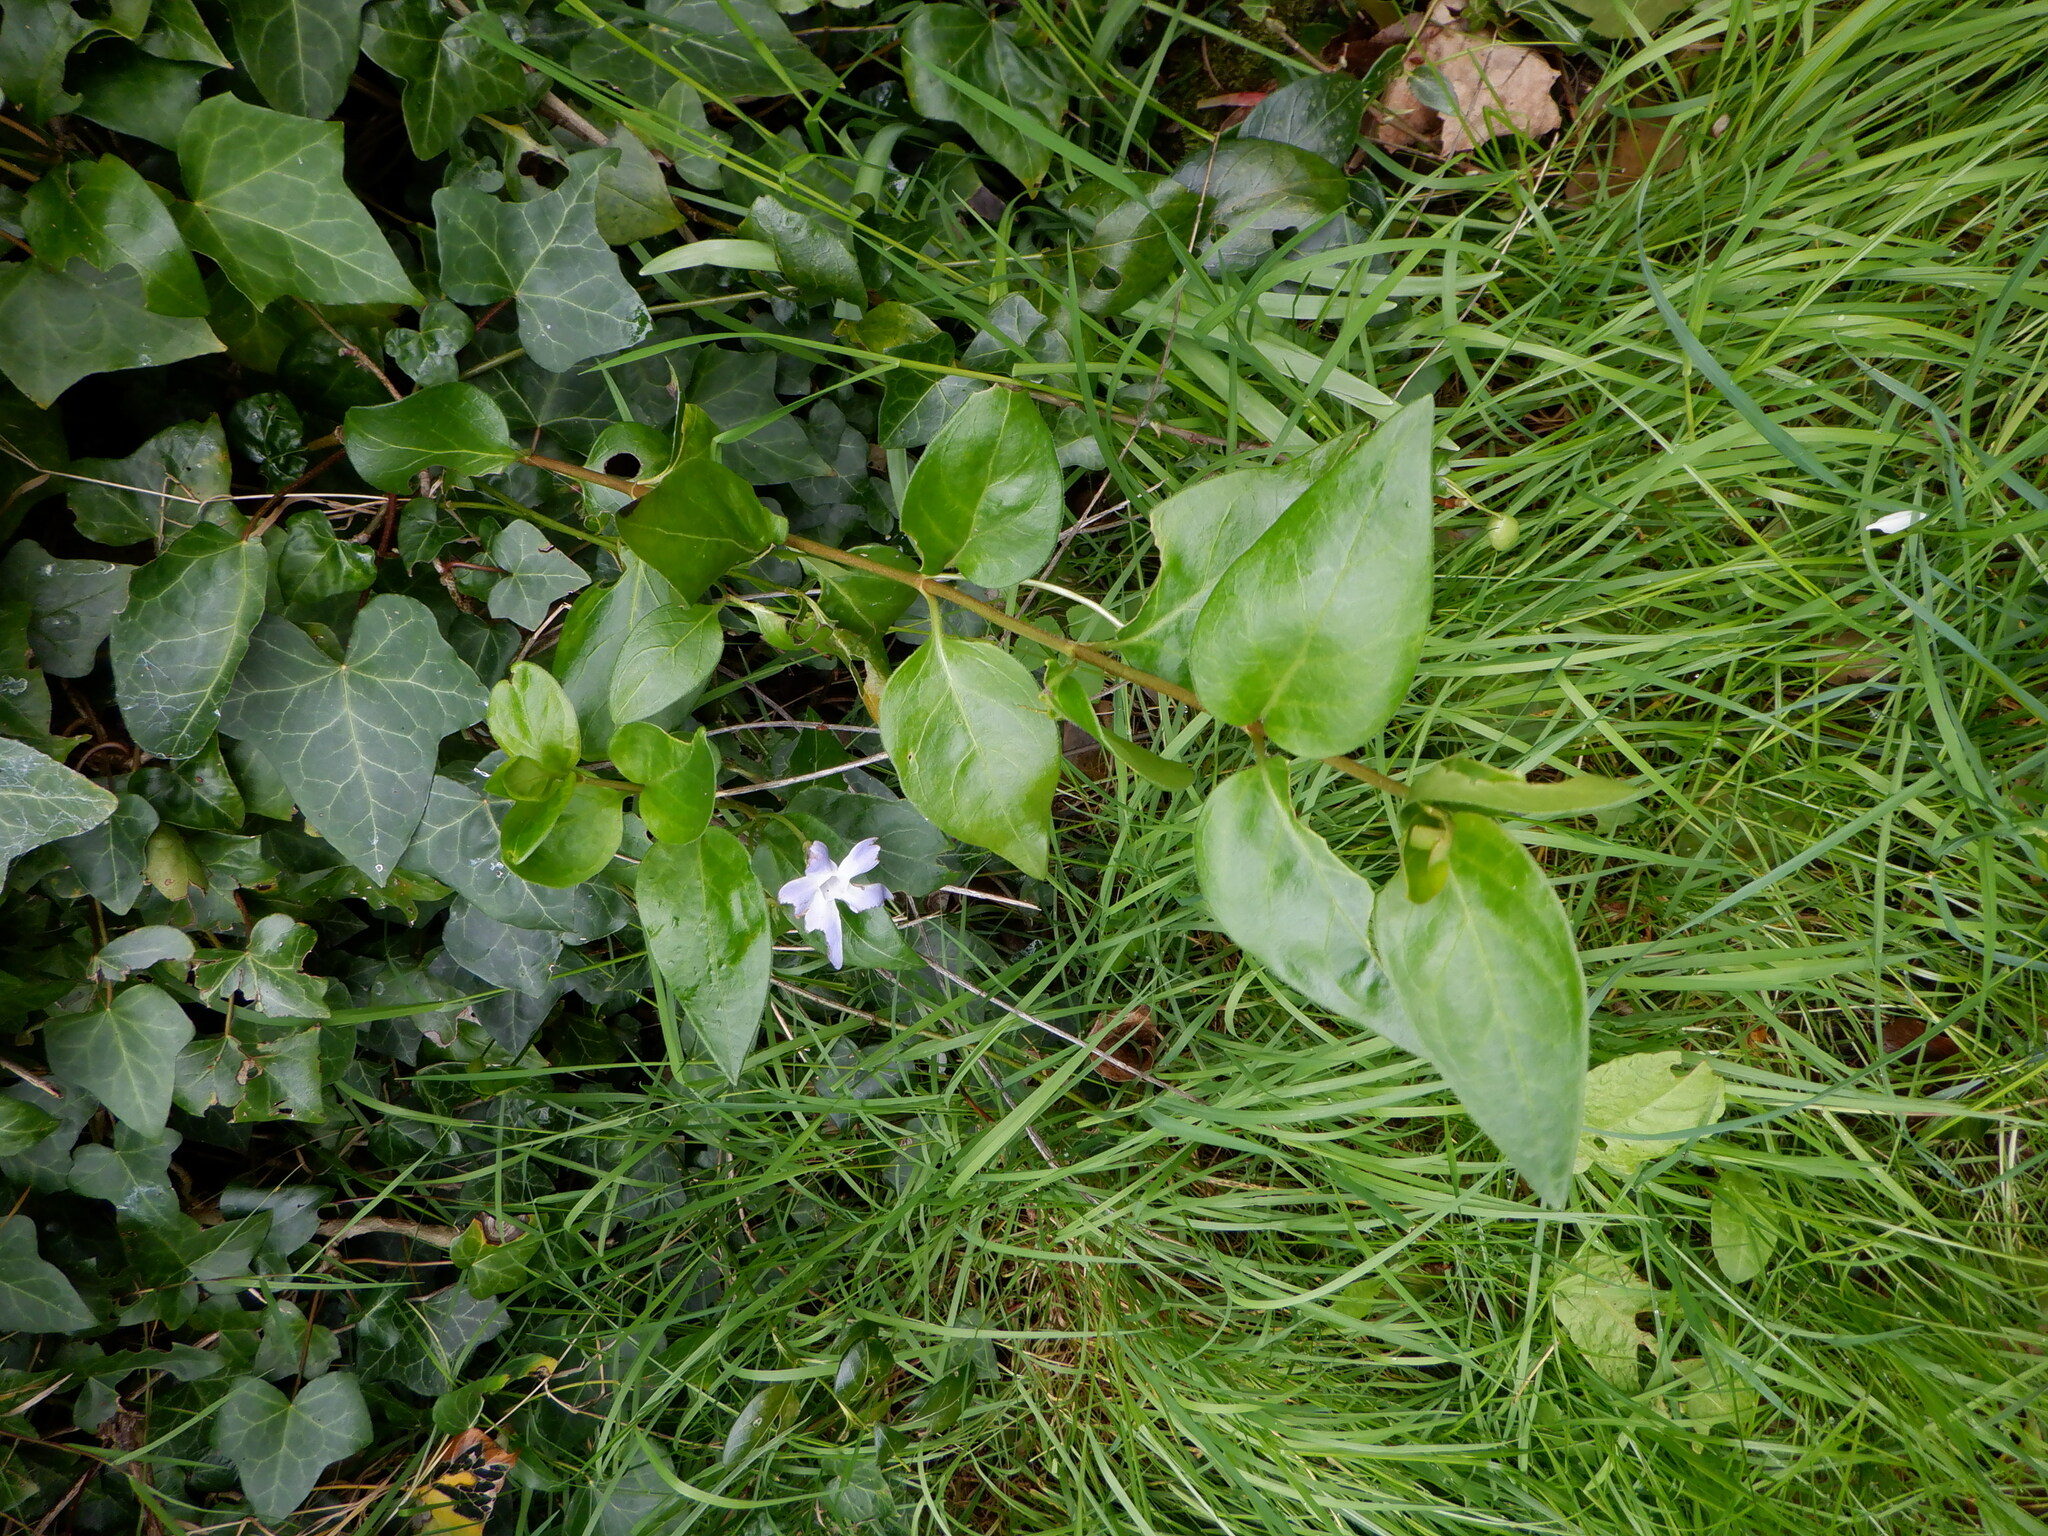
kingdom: Plantae
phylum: Tracheophyta
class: Magnoliopsida
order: Gentianales
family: Apocynaceae
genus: Vinca
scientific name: Vinca major
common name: Greater periwinkle
